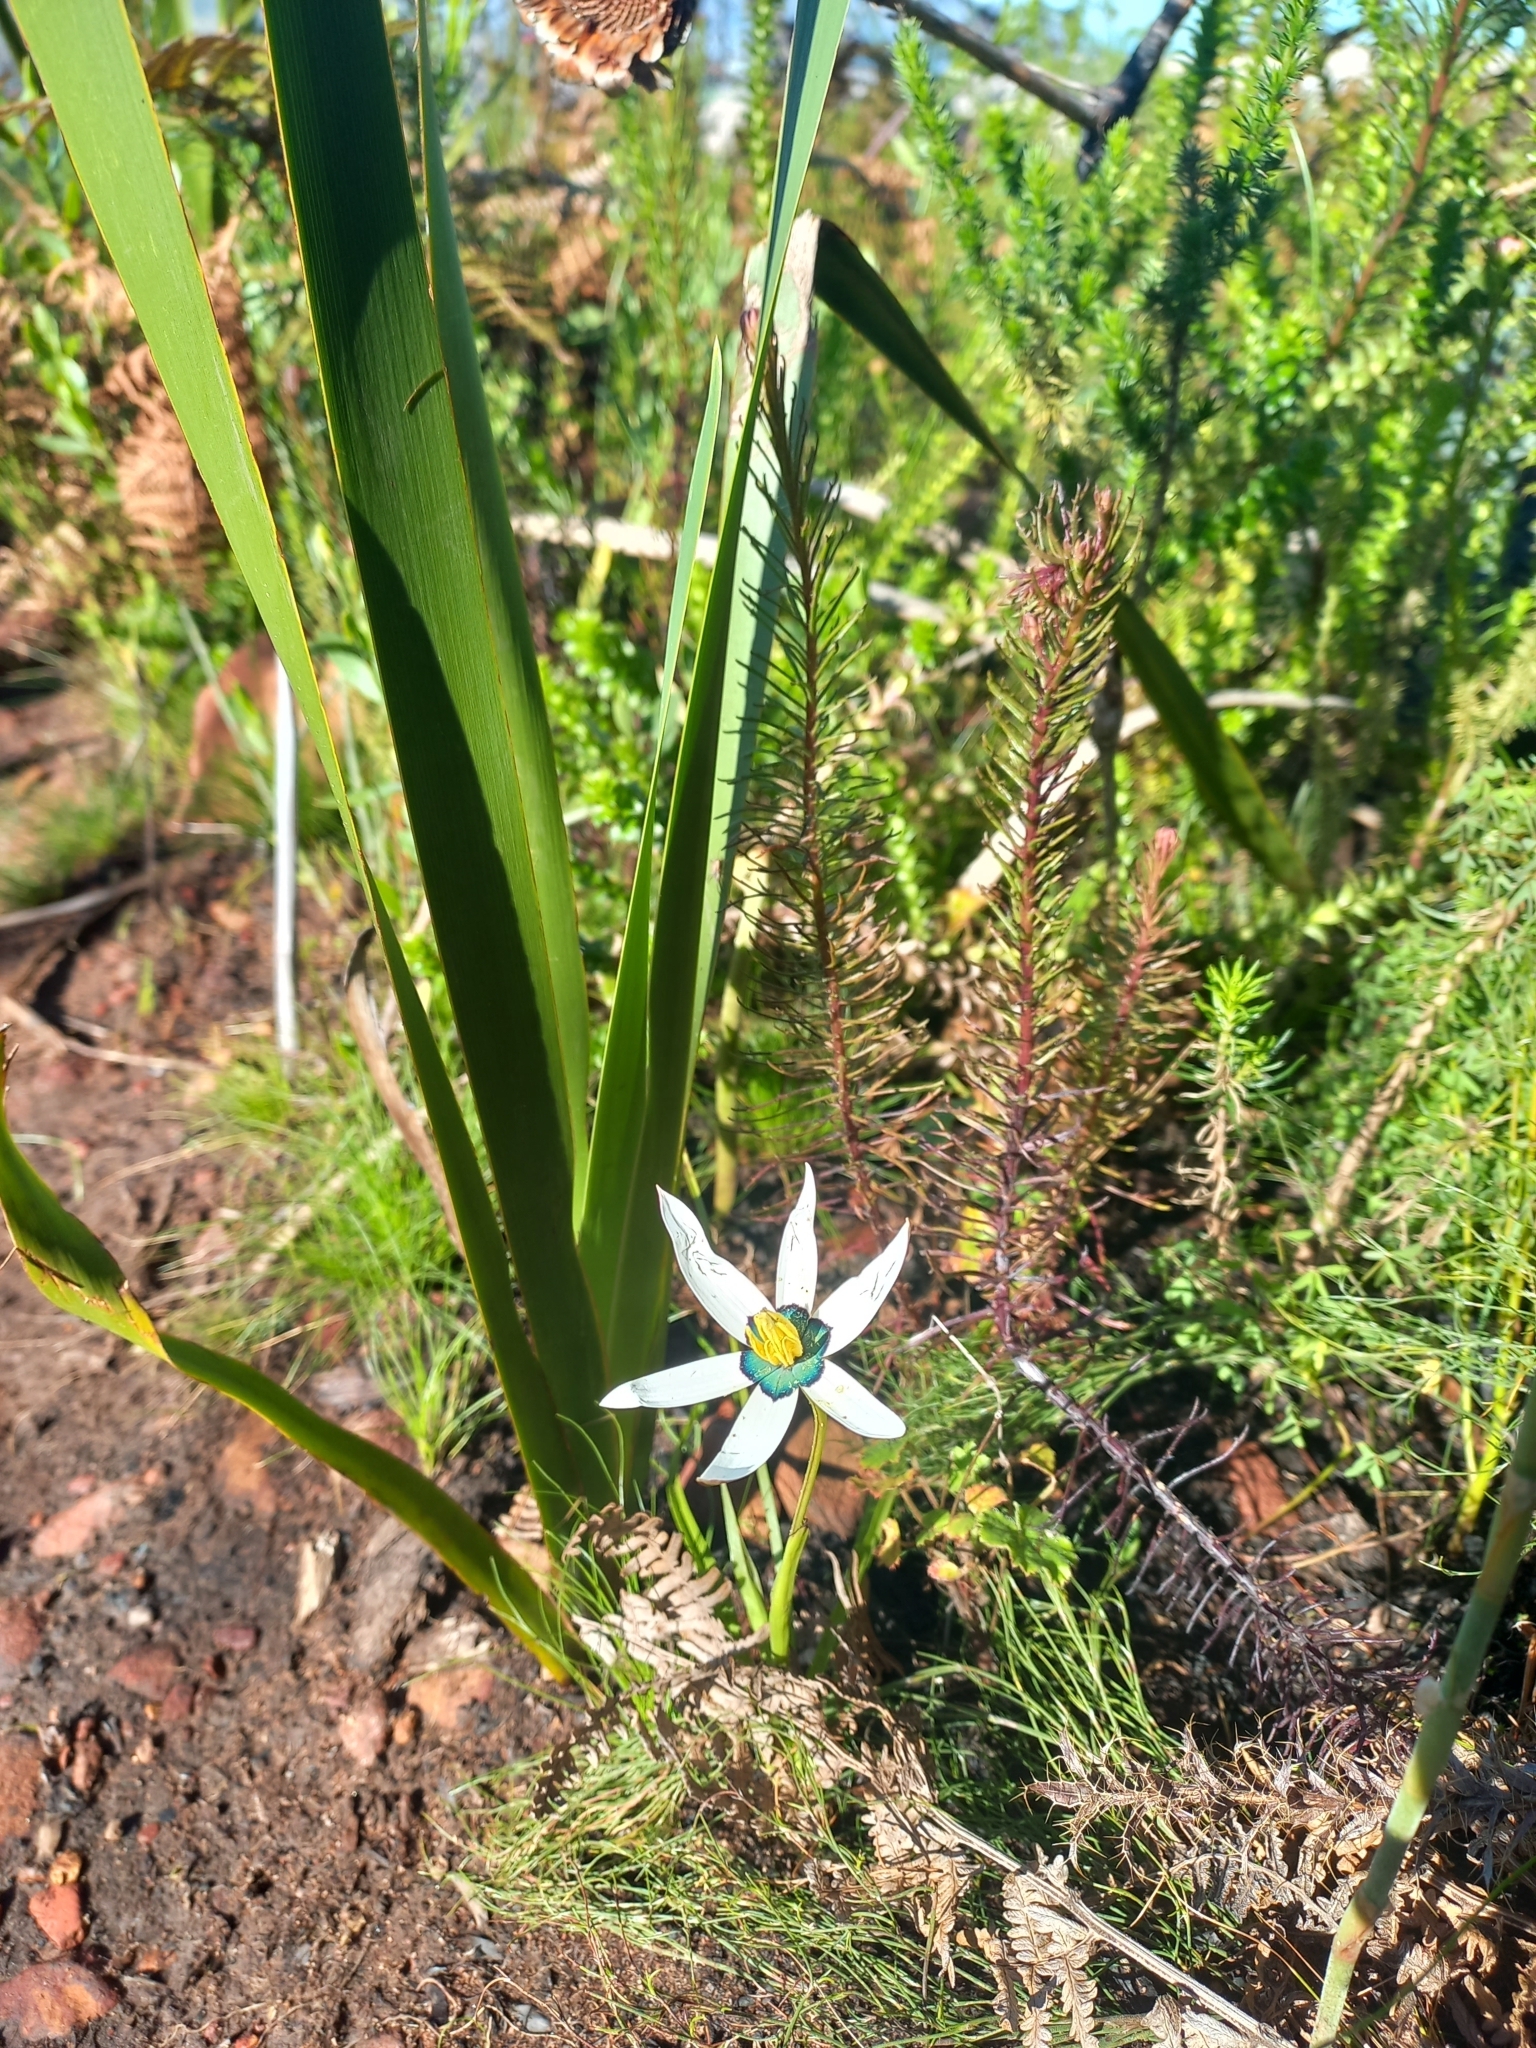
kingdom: Plantae
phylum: Tracheophyta
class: Liliopsida
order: Asparagales
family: Hypoxidaceae
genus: Pauridia
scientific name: Pauridia capensis
